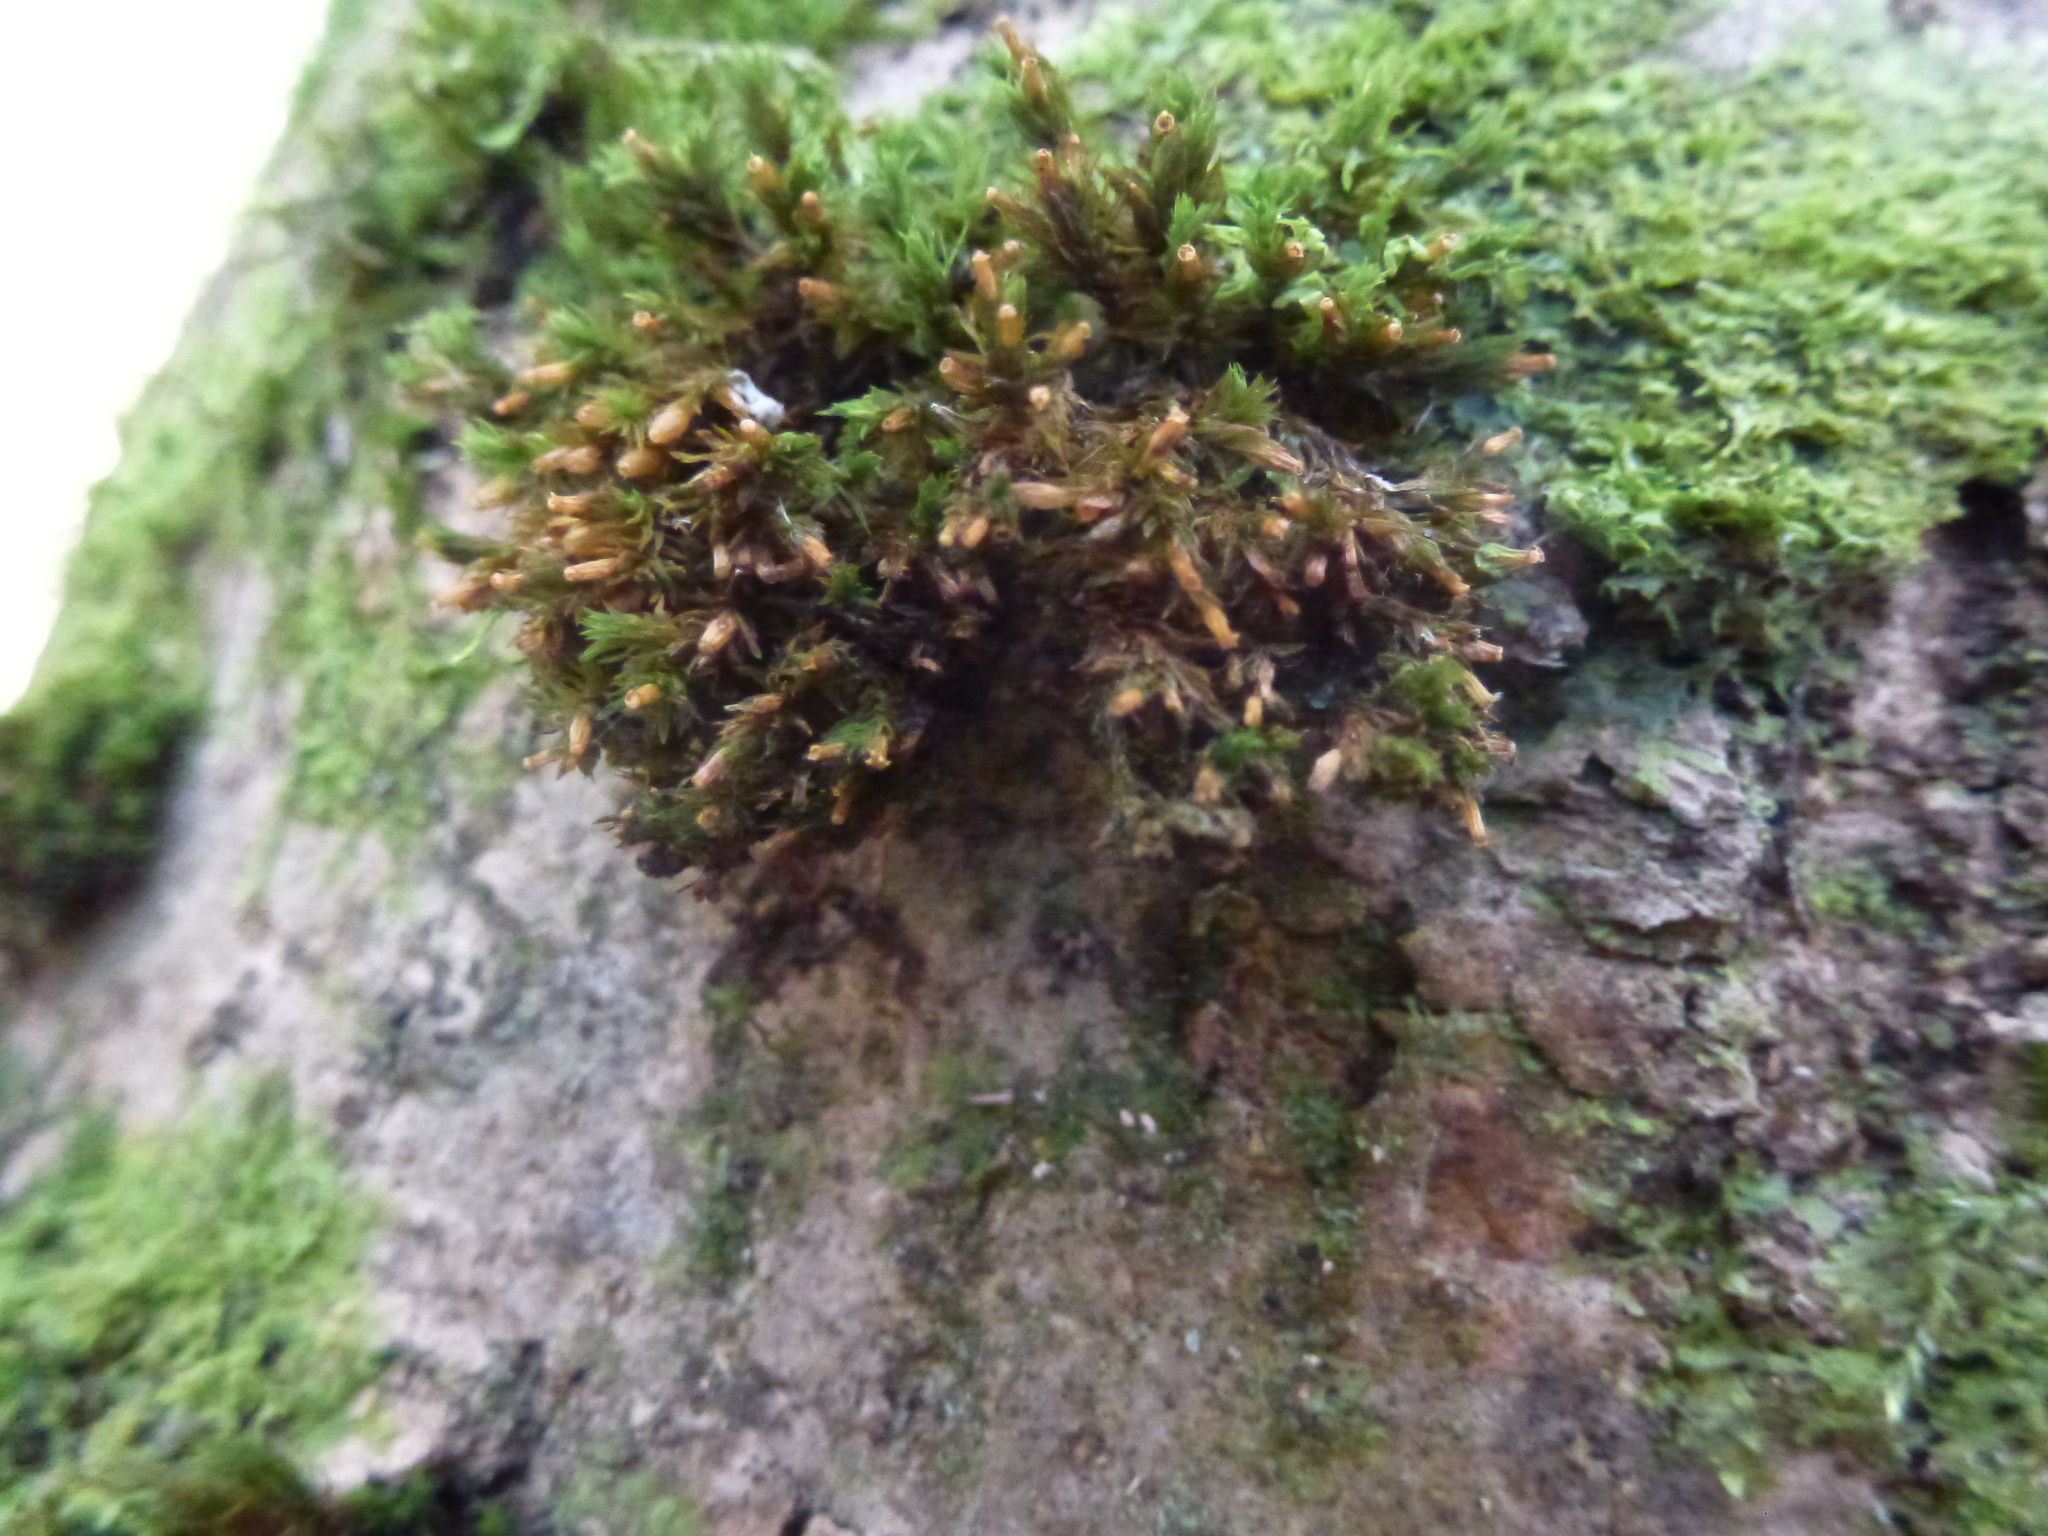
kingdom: Plantae
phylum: Bryophyta
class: Bryopsida
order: Orthotrichales
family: Orthotrichaceae
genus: Lewinskya
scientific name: Lewinskya affinis
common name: Wood bristle-moss
